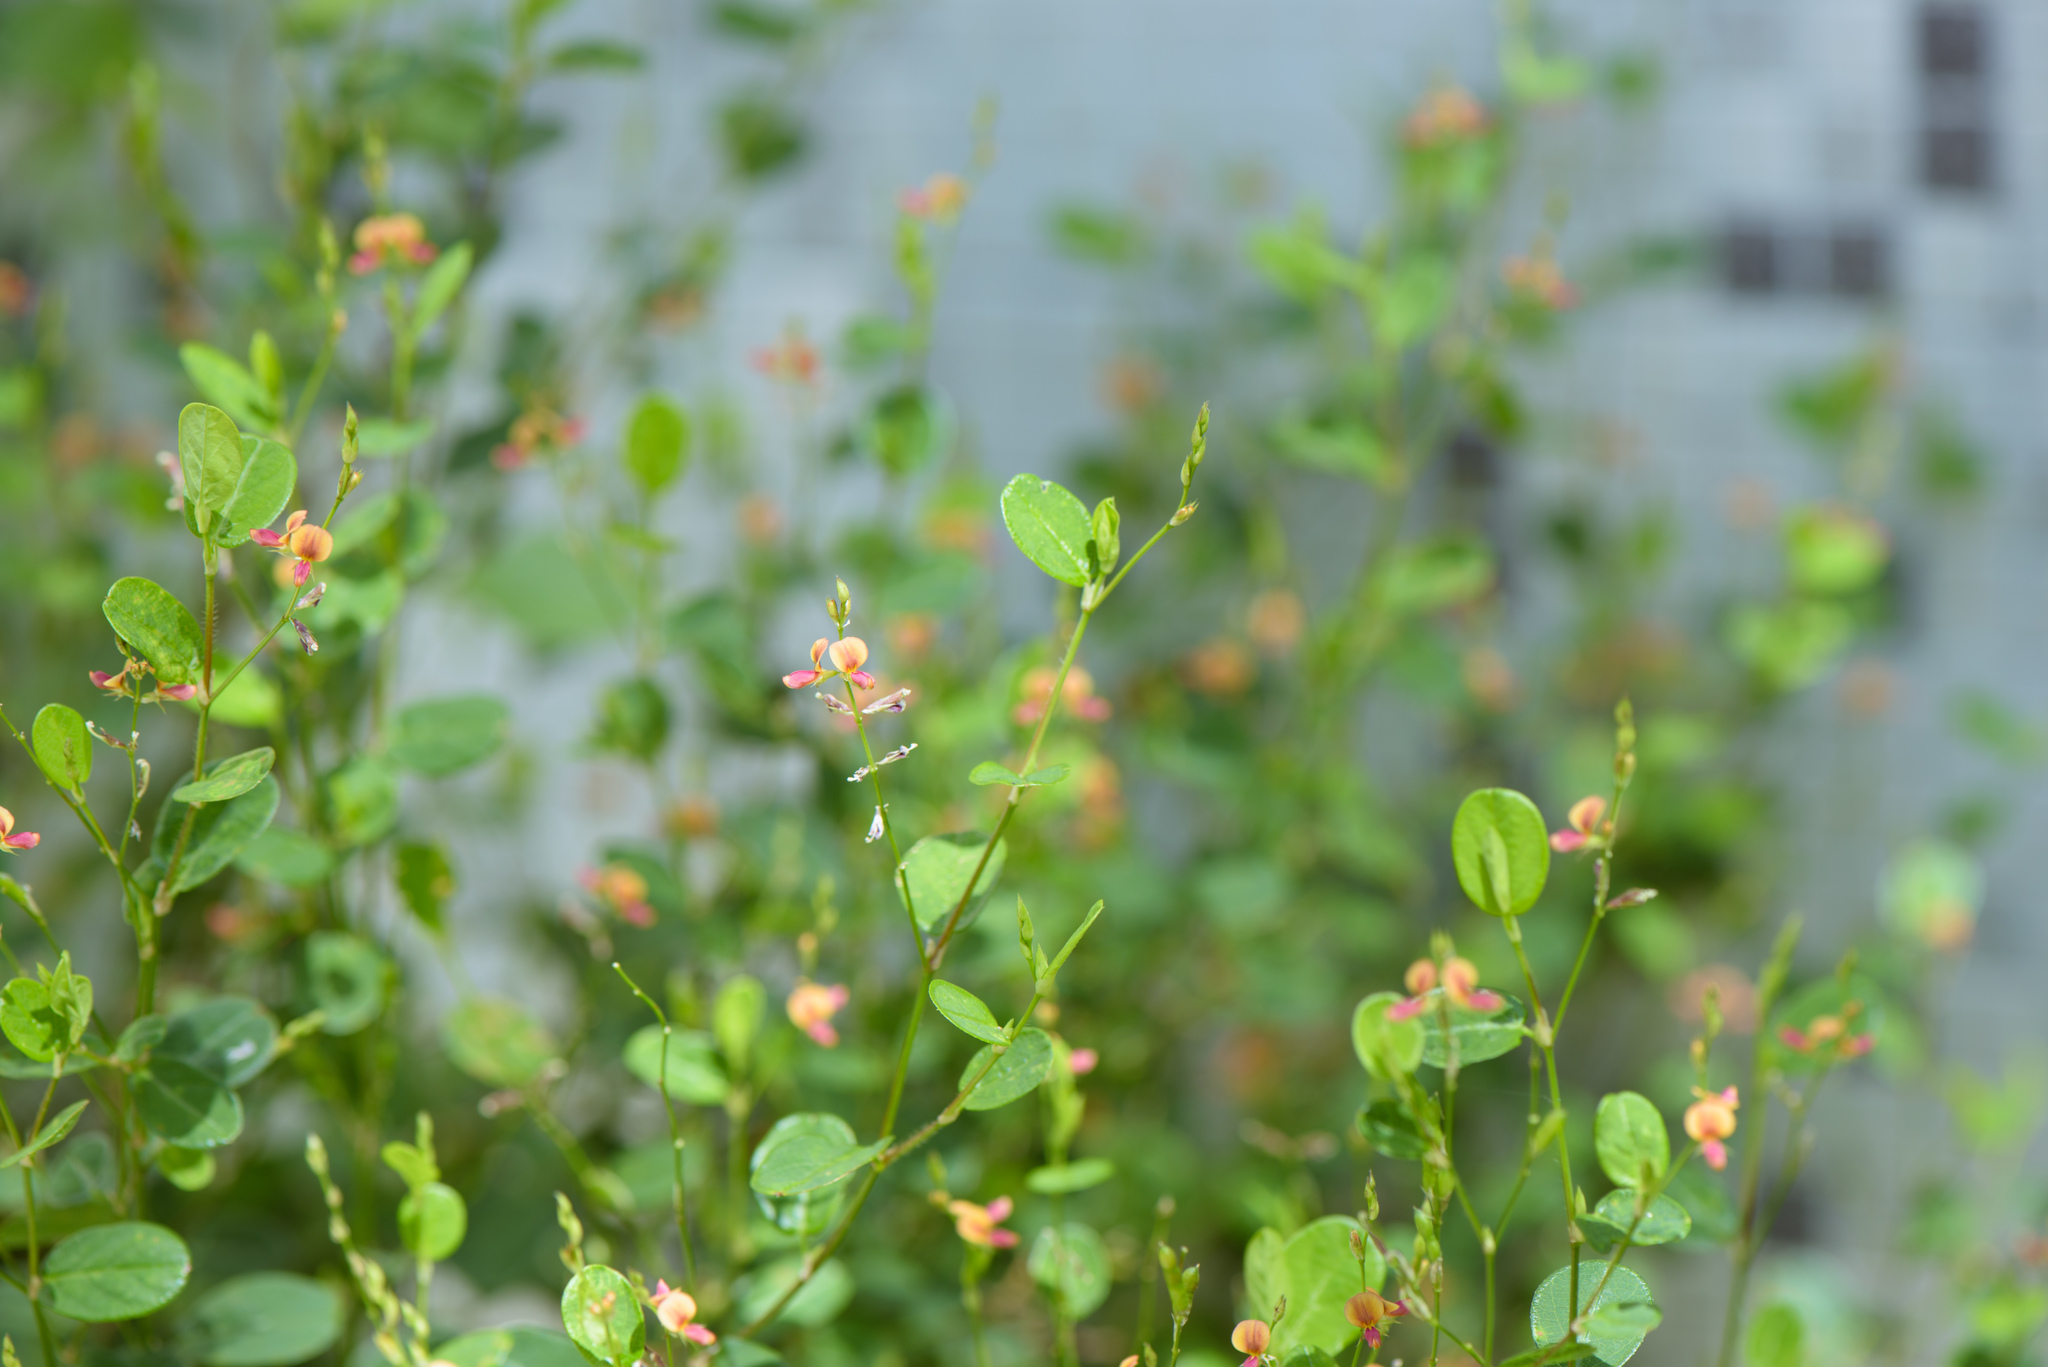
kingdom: Plantae
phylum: Tracheophyta
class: Magnoliopsida
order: Fabales
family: Fabaceae
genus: Alysicarpus
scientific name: Alysicarpus ovalifolius
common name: Alyce clover
